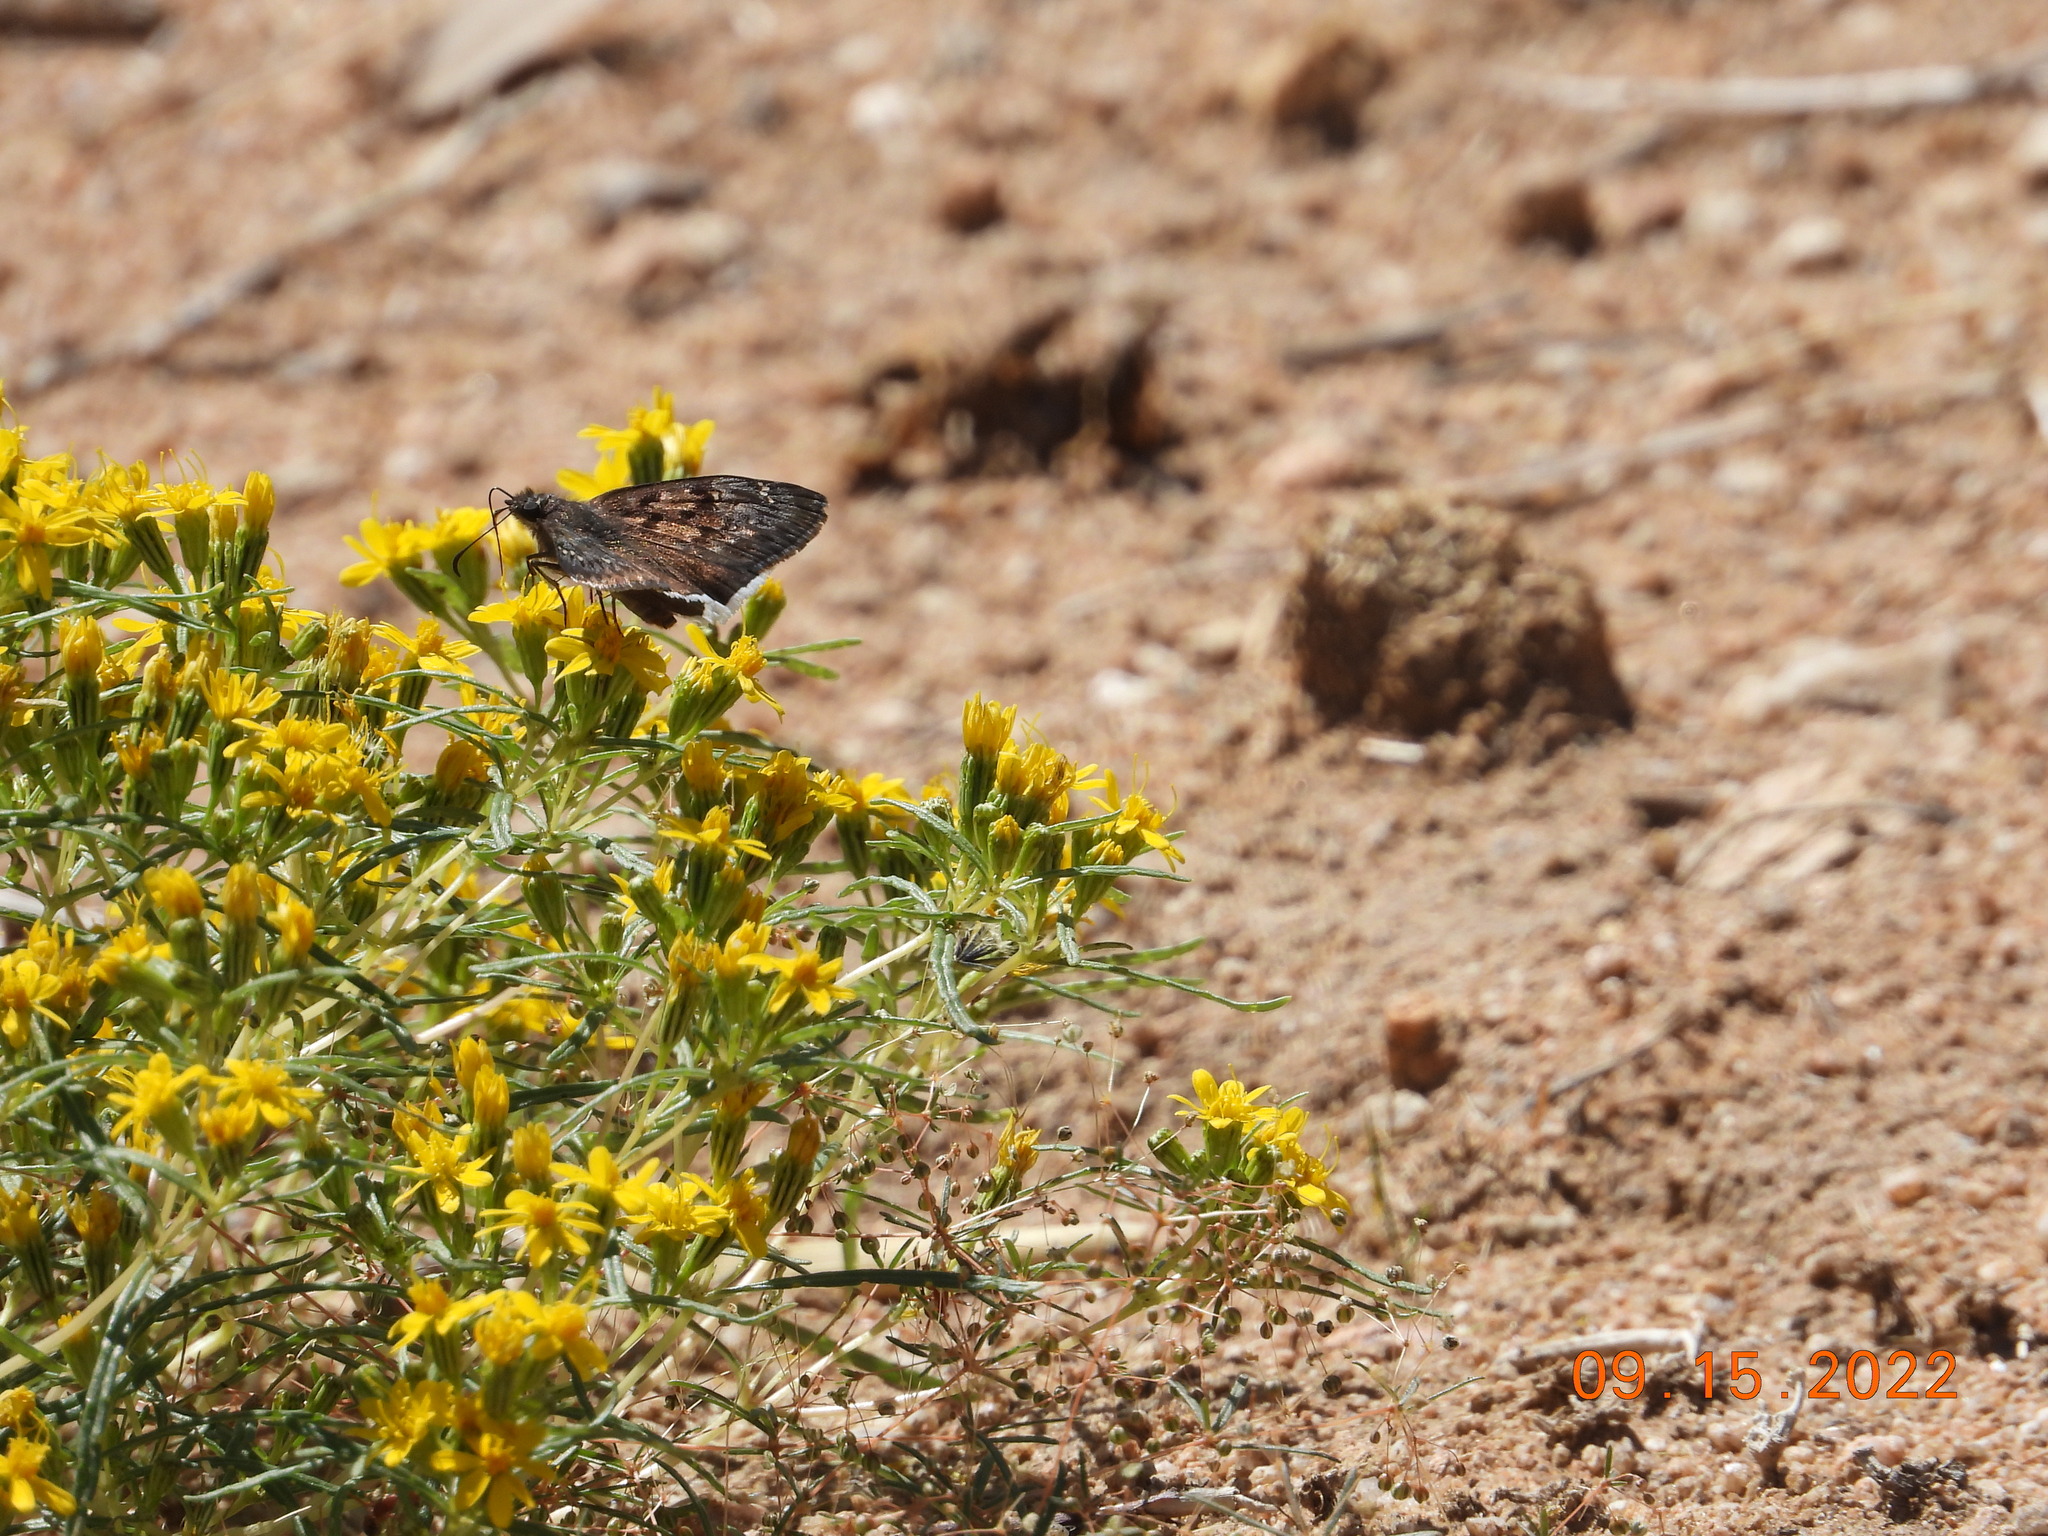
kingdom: Animalia
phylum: Arthropoda
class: Insecta
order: Lepidoptera
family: Hesperiidae
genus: Erynnis
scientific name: Erynnis tristis
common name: Mournful duskywing
